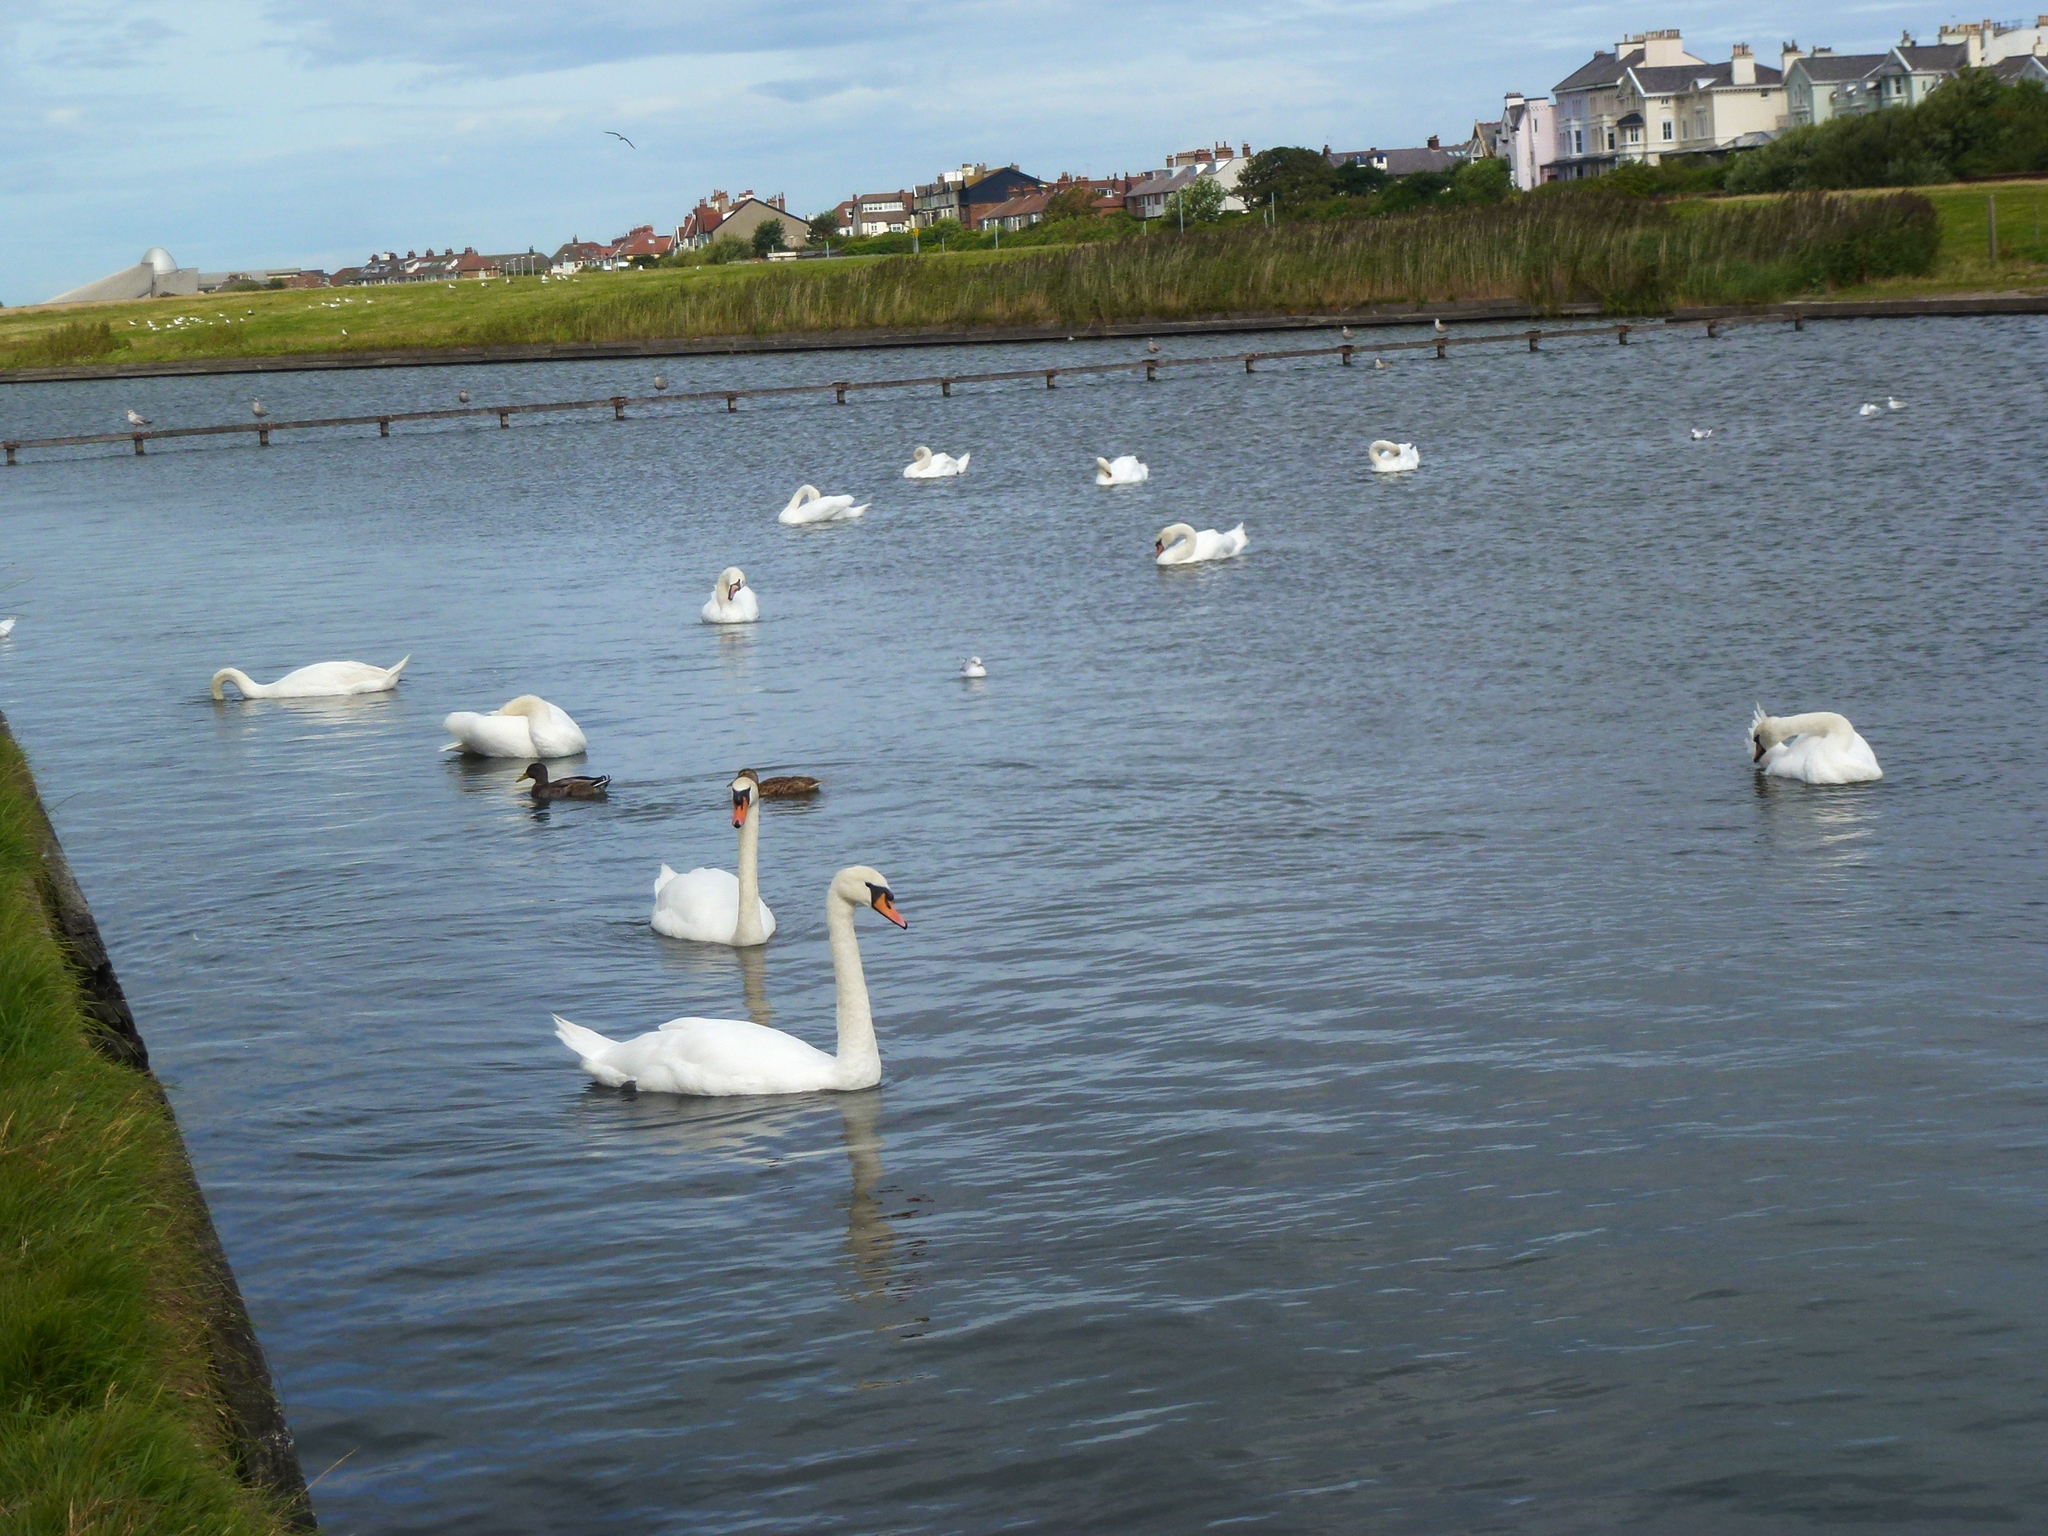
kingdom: Animalia
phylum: Chordata
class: Aves
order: Anseriformes
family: Anatidae
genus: Cygnus
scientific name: Cygnus olor
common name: Mute swan
